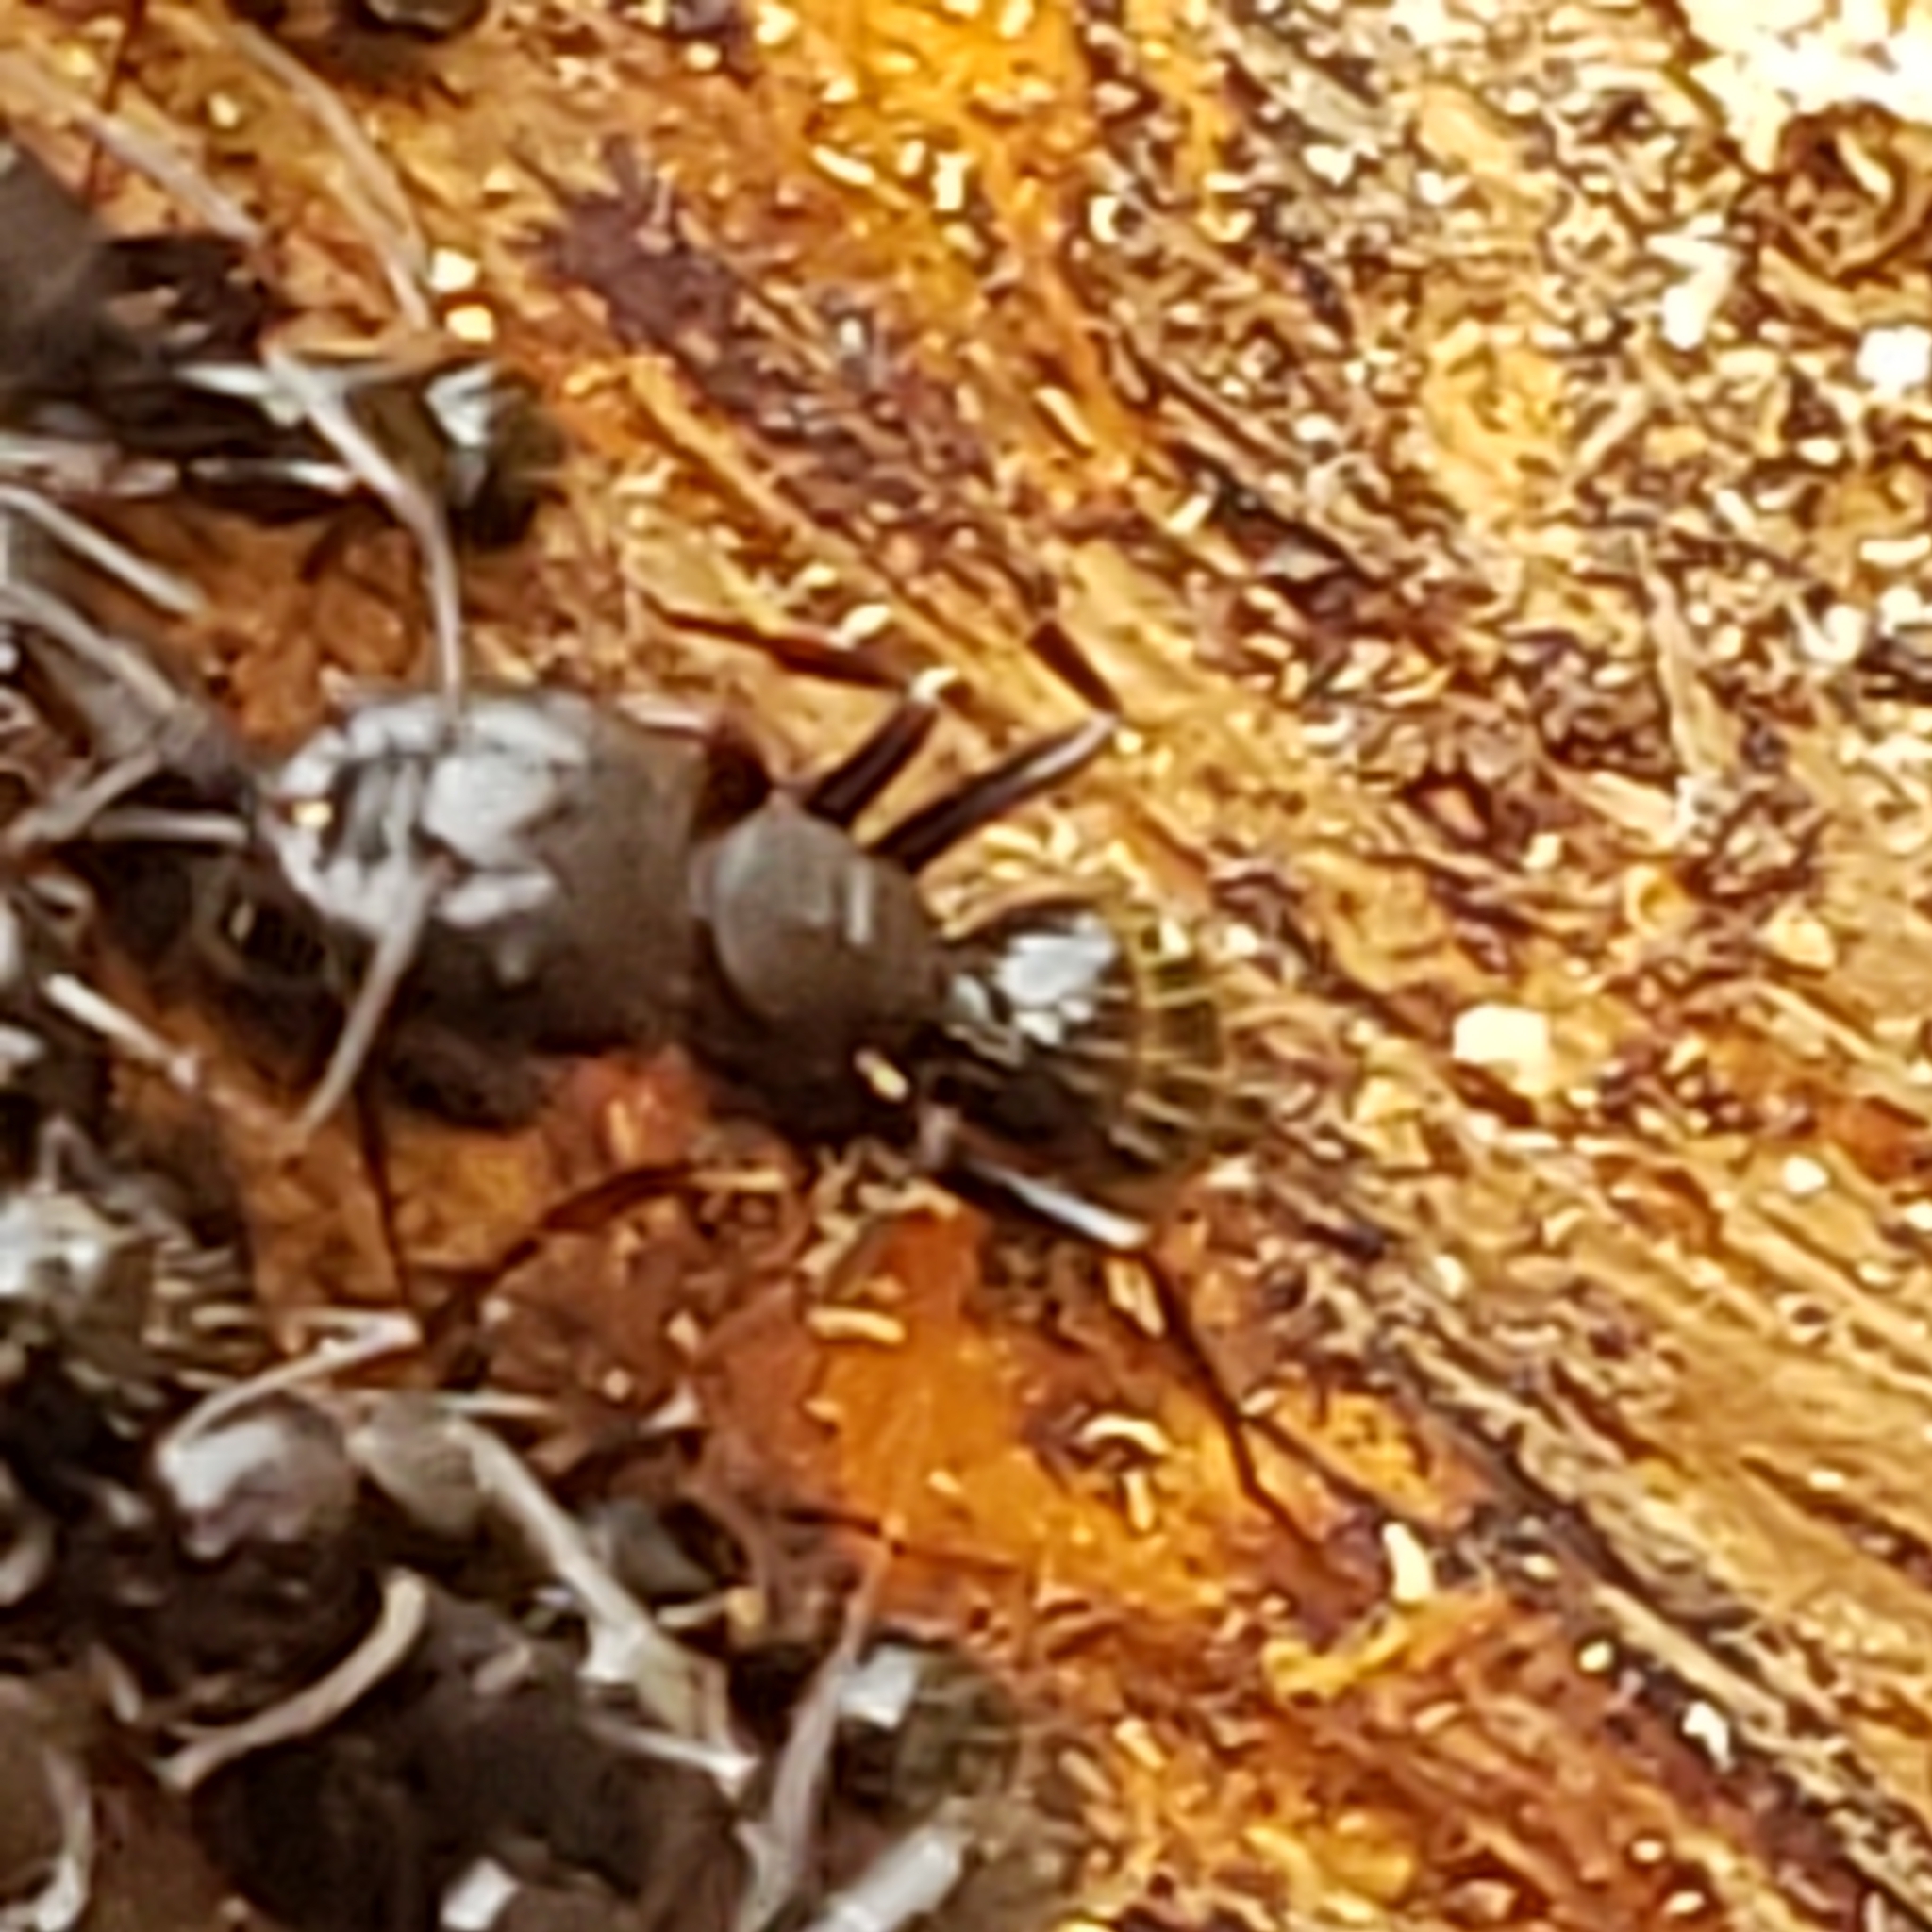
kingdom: Animalia
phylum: Arthropoda
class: Insecta
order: Hymenoptera
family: Formicidae
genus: Camponotus
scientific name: Camponotus nearcticus
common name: Smaller carpenter ant
